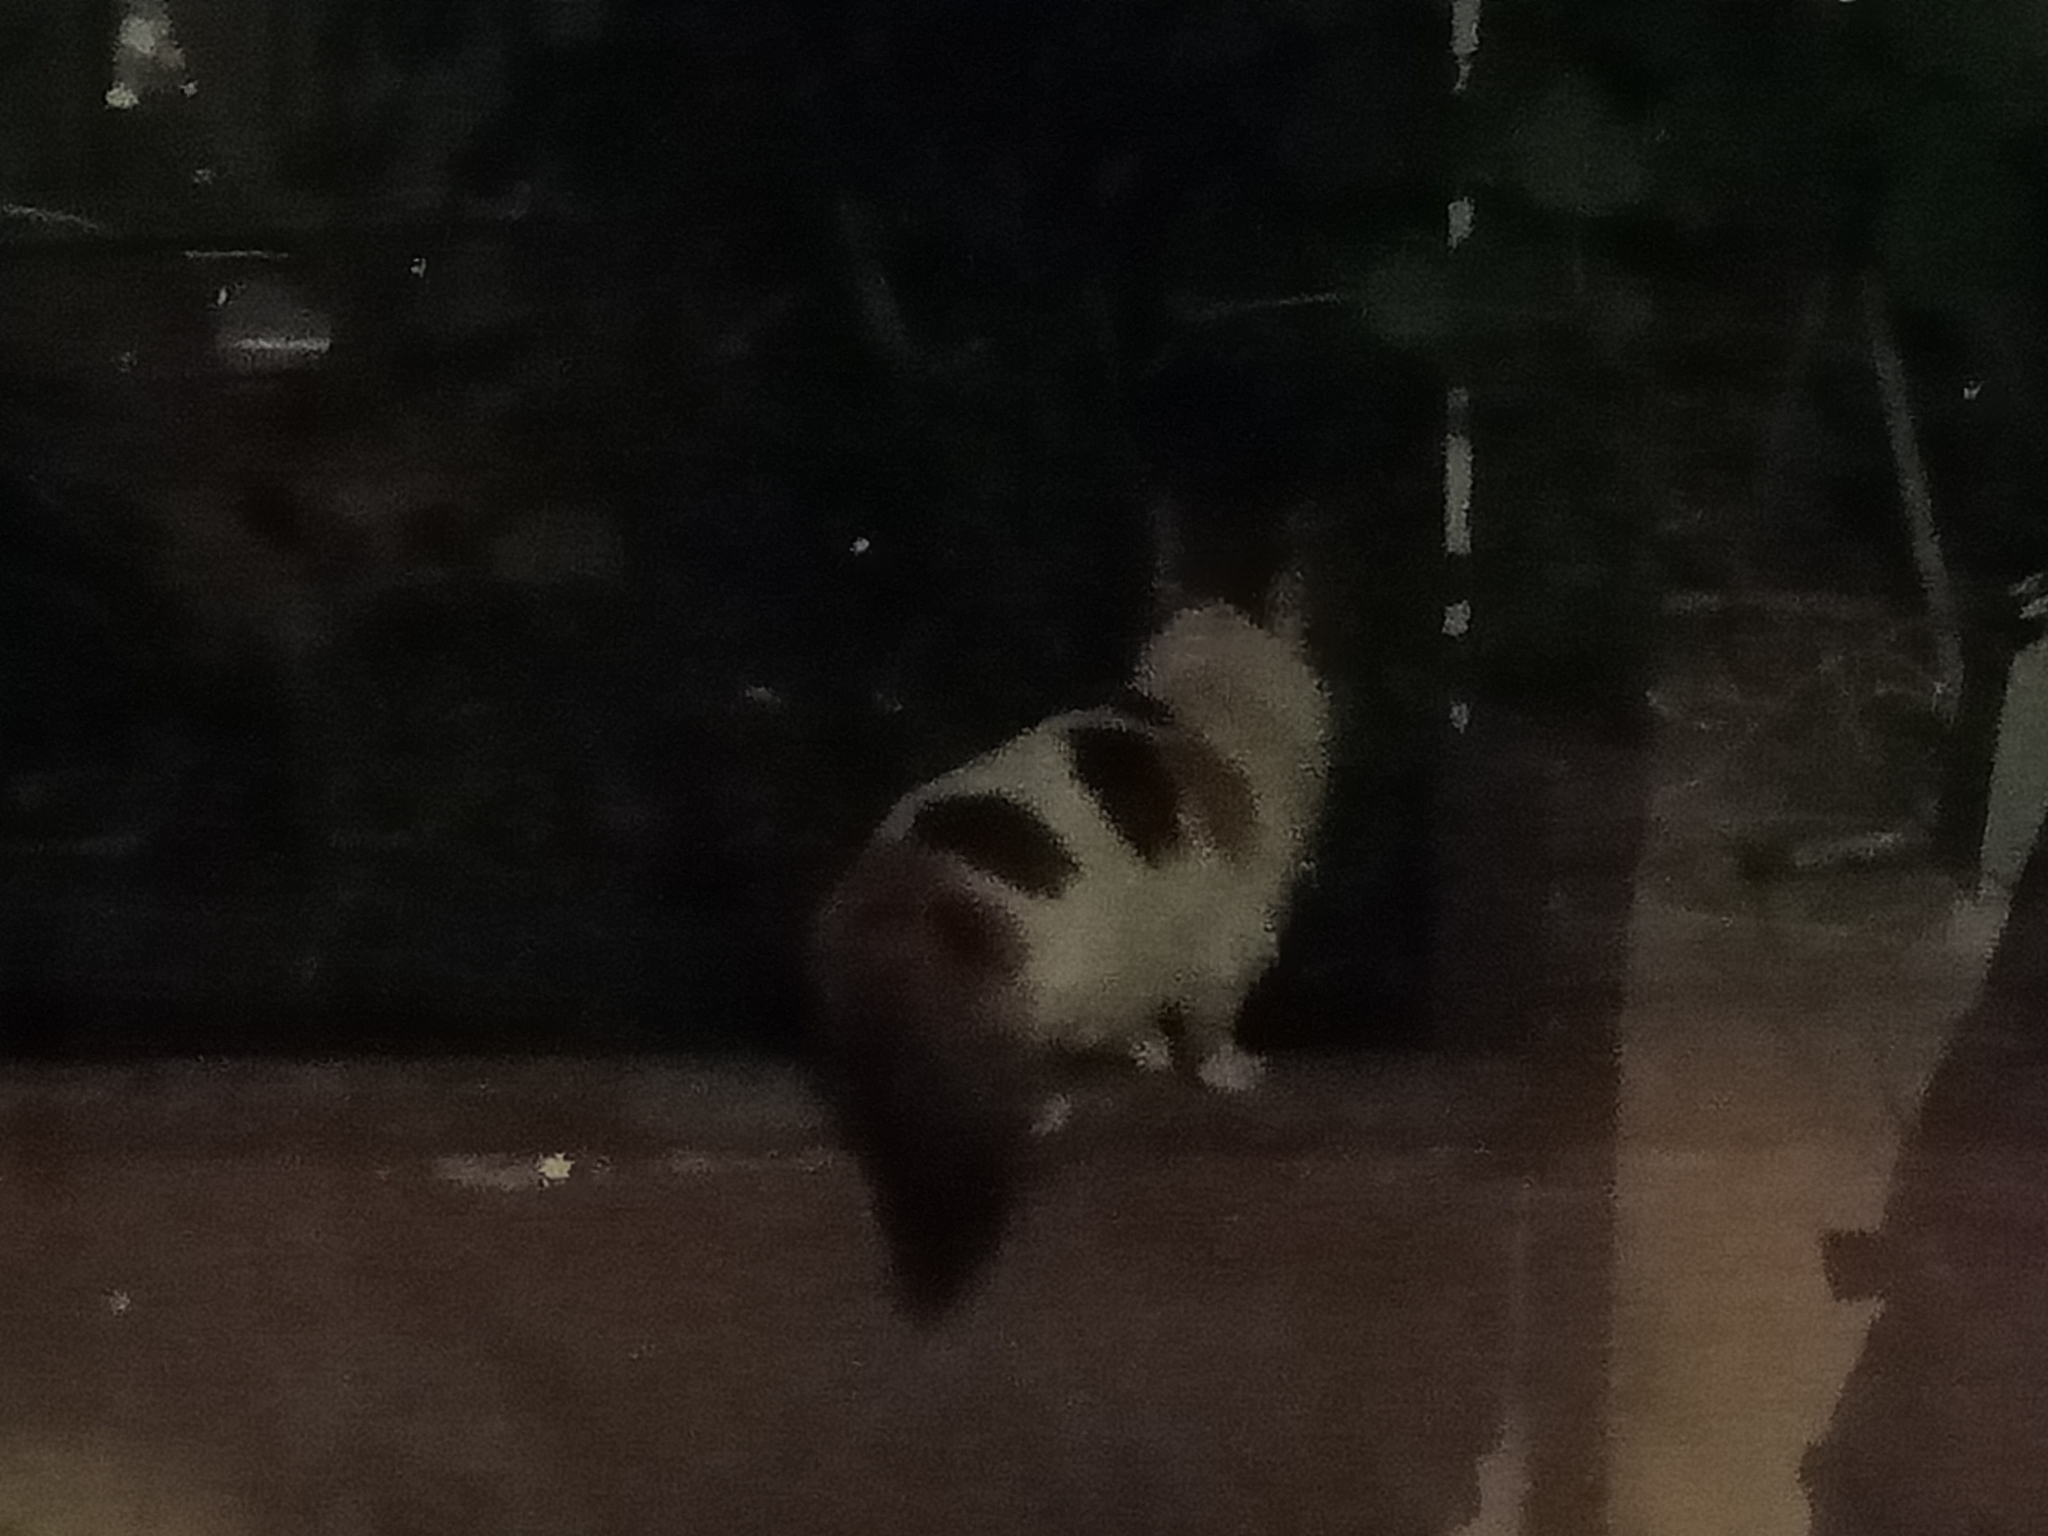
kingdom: Animalia
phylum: Chordata
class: Mammalia
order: Carnivora
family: Felidae
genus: Felis
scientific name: Felis catus
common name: Domestic cat
